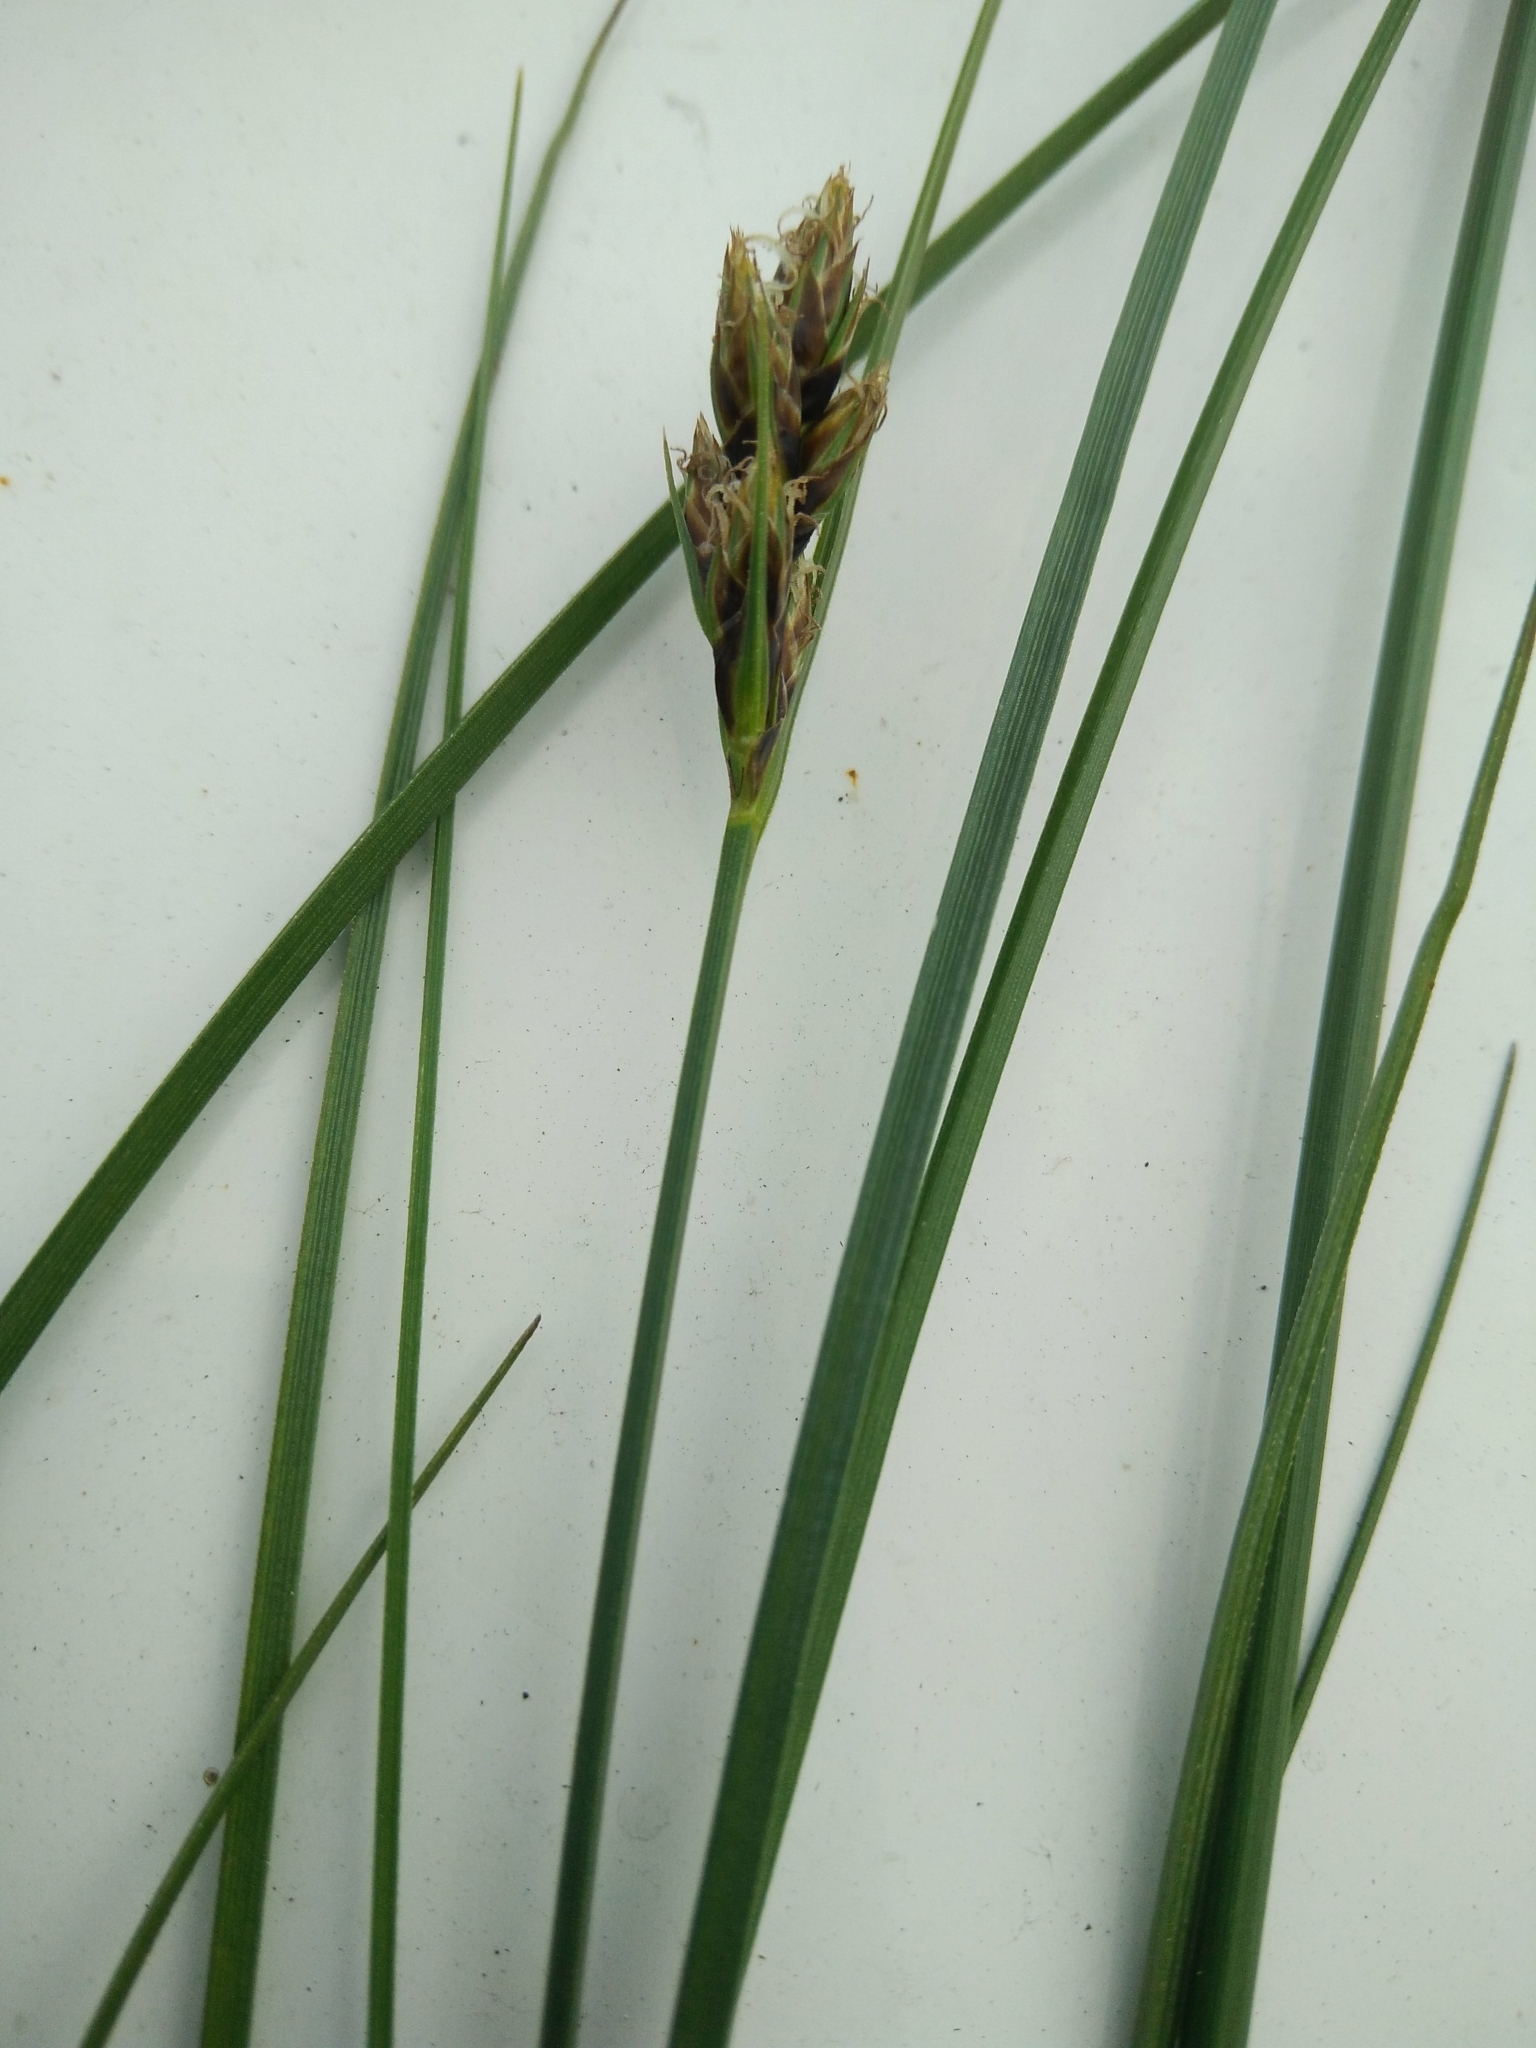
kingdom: Plantae
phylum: Tracheophyta
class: Liliopsida
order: Poales
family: Cyperaceae
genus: Carex
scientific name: Carex divisa
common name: Divided sedge
